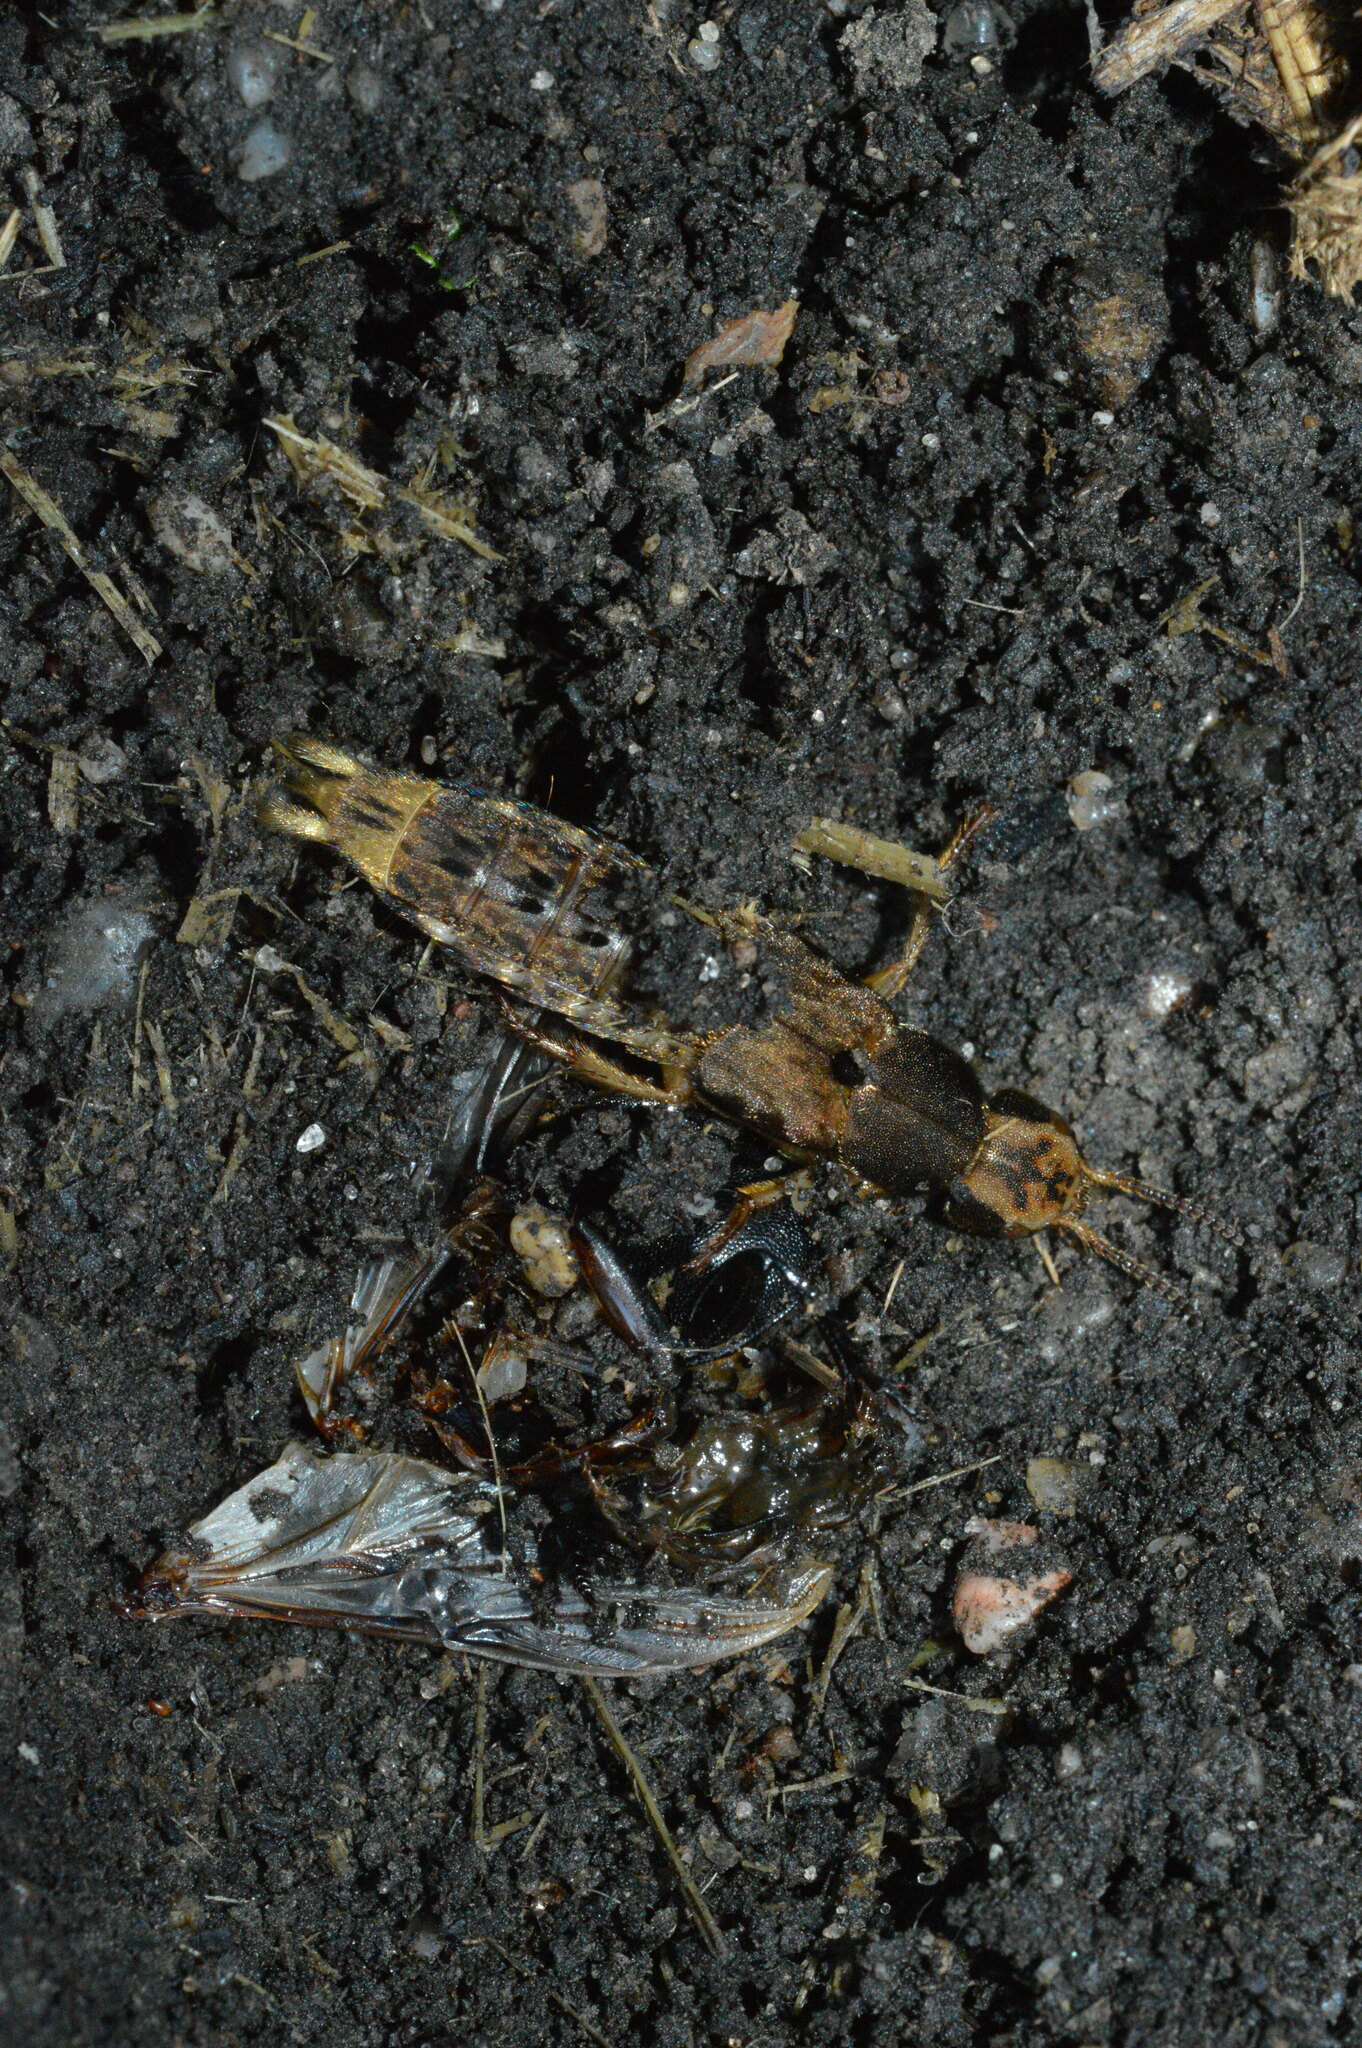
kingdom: Animalia
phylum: Arthropoda
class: Insecta
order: Coleoptera
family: Staphylinidae
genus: Platydracus
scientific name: Platydracus maculosus
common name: Brown rove beetle
